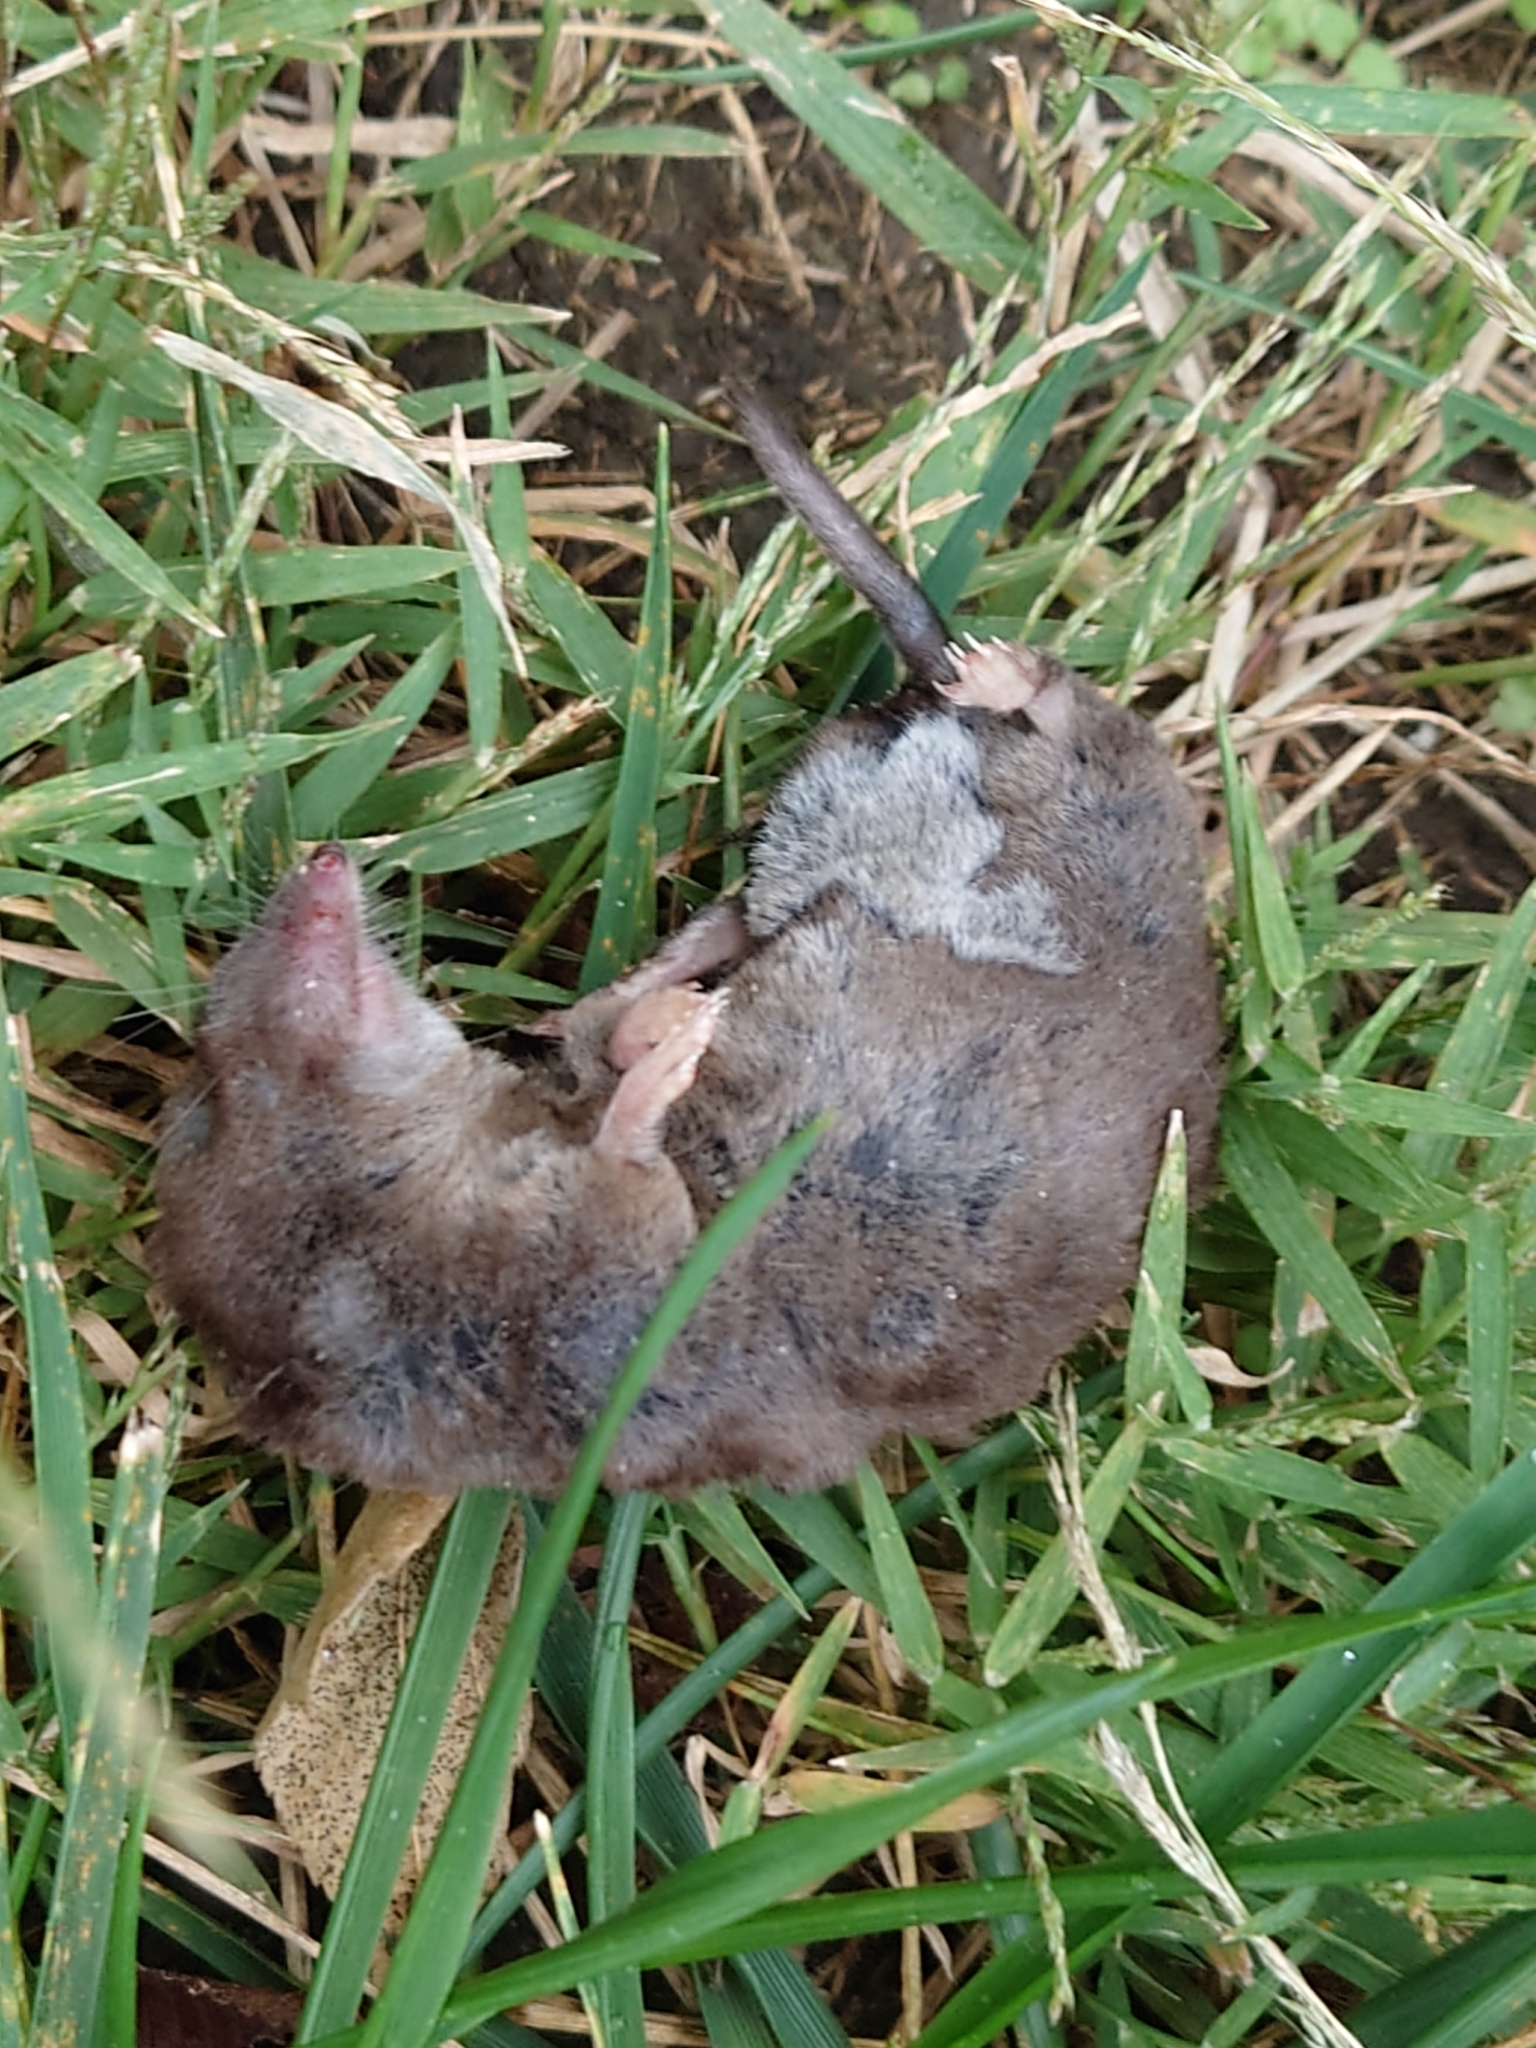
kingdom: Animalia
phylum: Chordata
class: Mammalia
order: Soricomorpha
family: Soricidae
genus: Blarina
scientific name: Blarina hylophaga
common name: Elliot's short-tailed shrew
